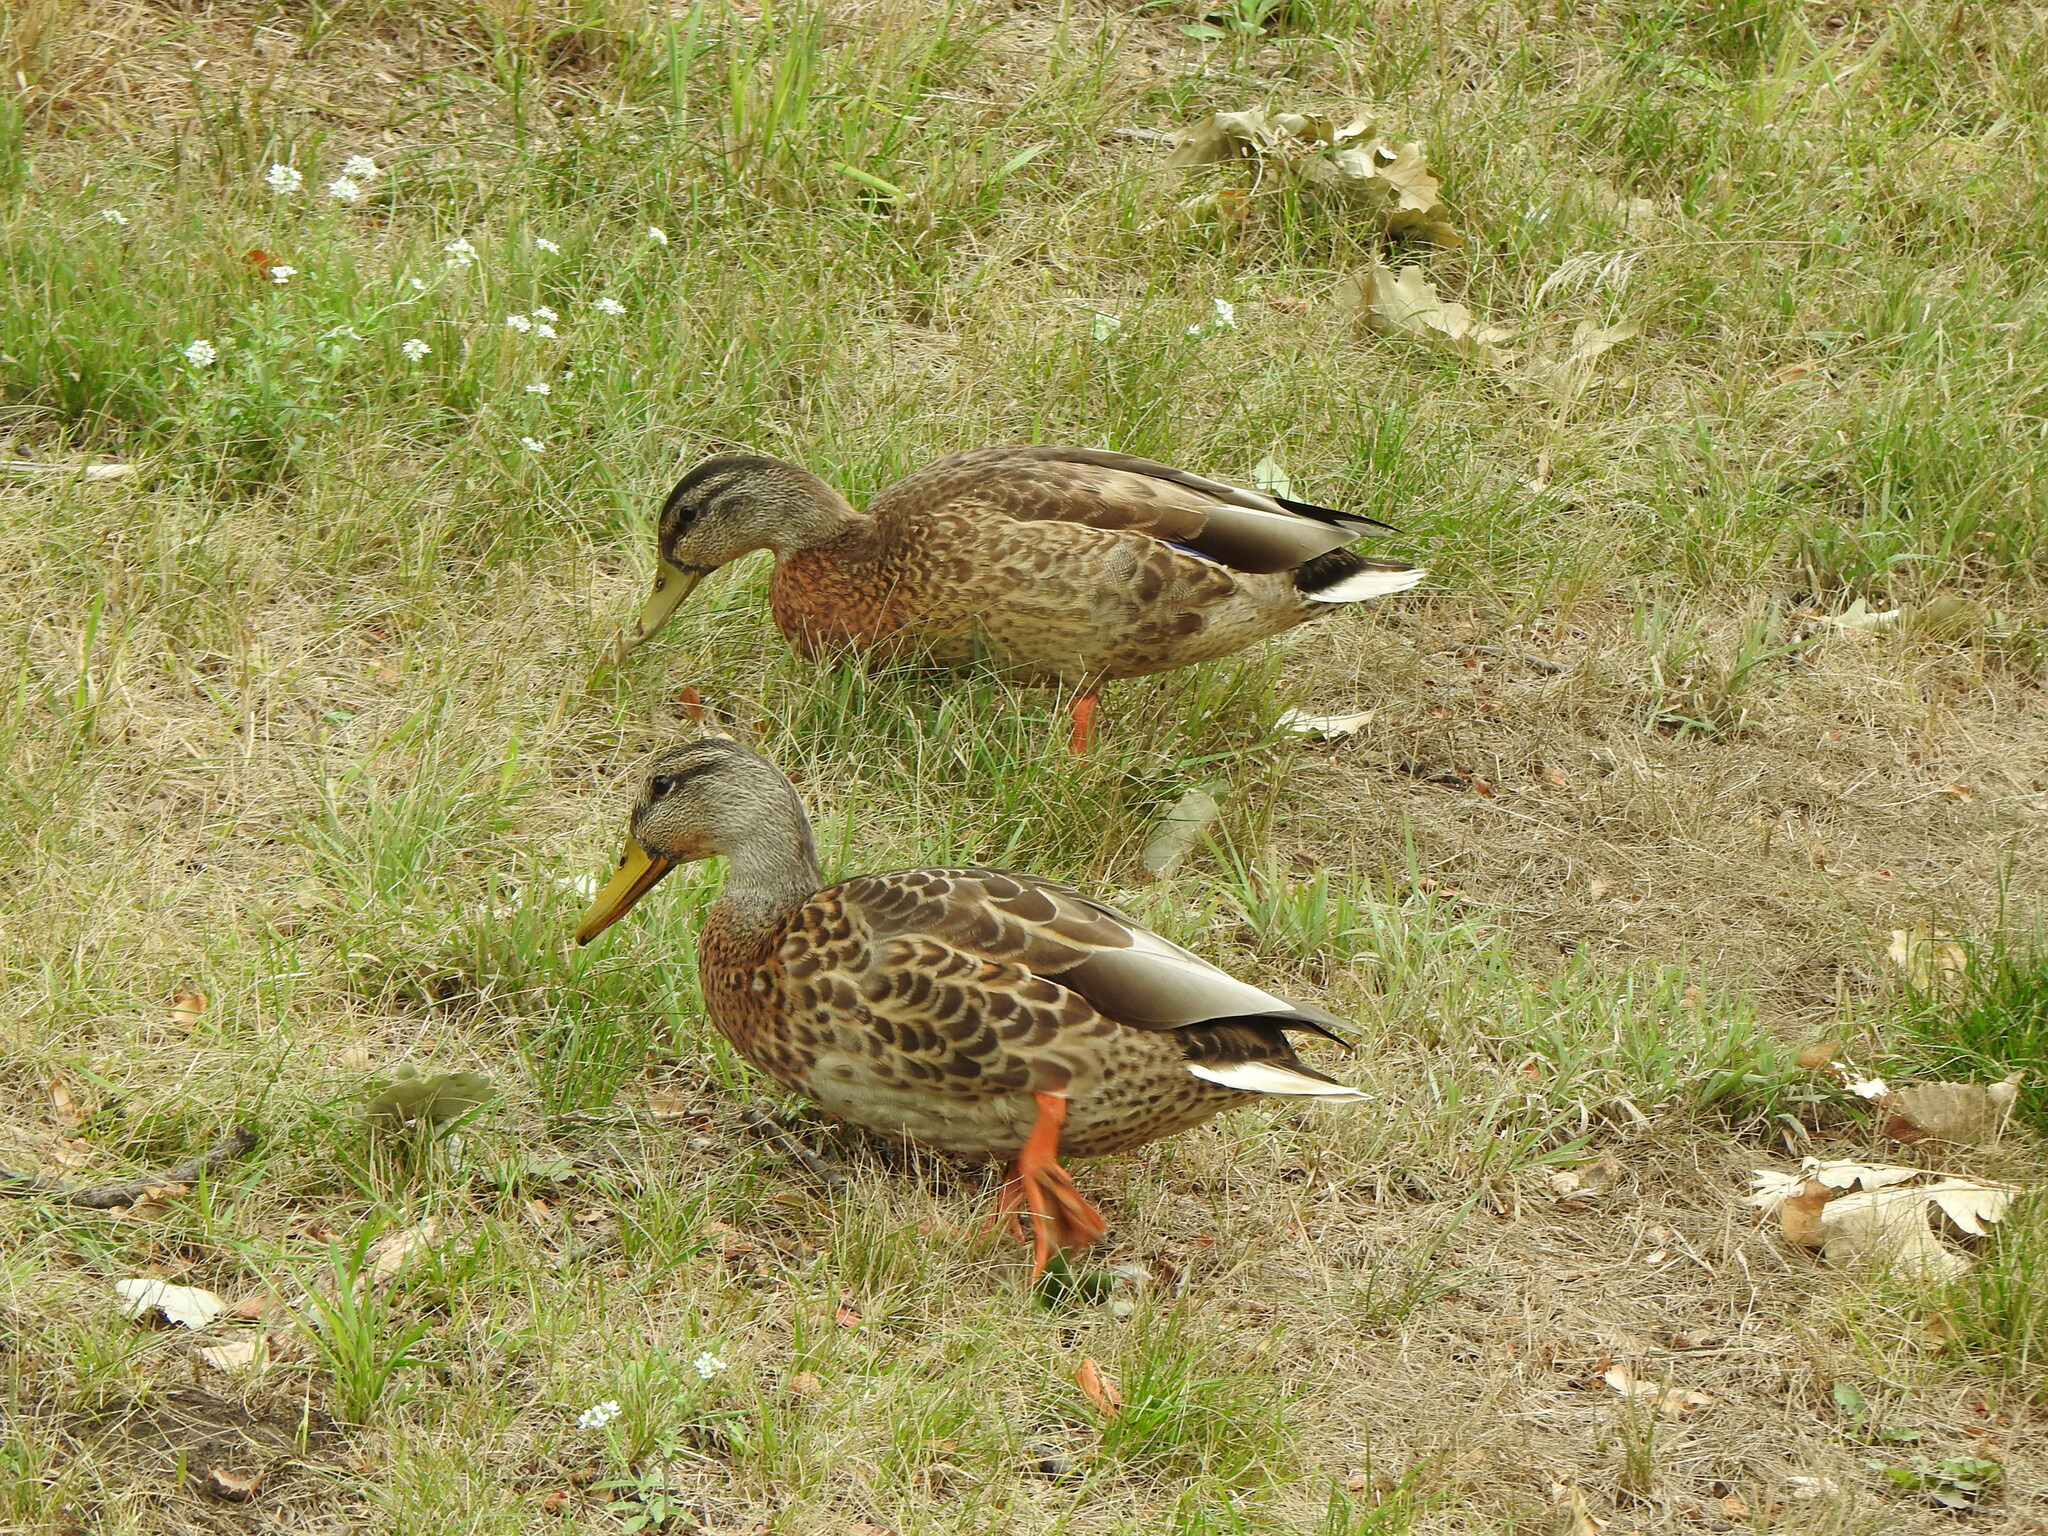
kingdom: Animalia
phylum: Chordata
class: Aves
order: Anseriformes
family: Anatidae
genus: Anas
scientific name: Anas platyrhynchos
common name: Mallard
